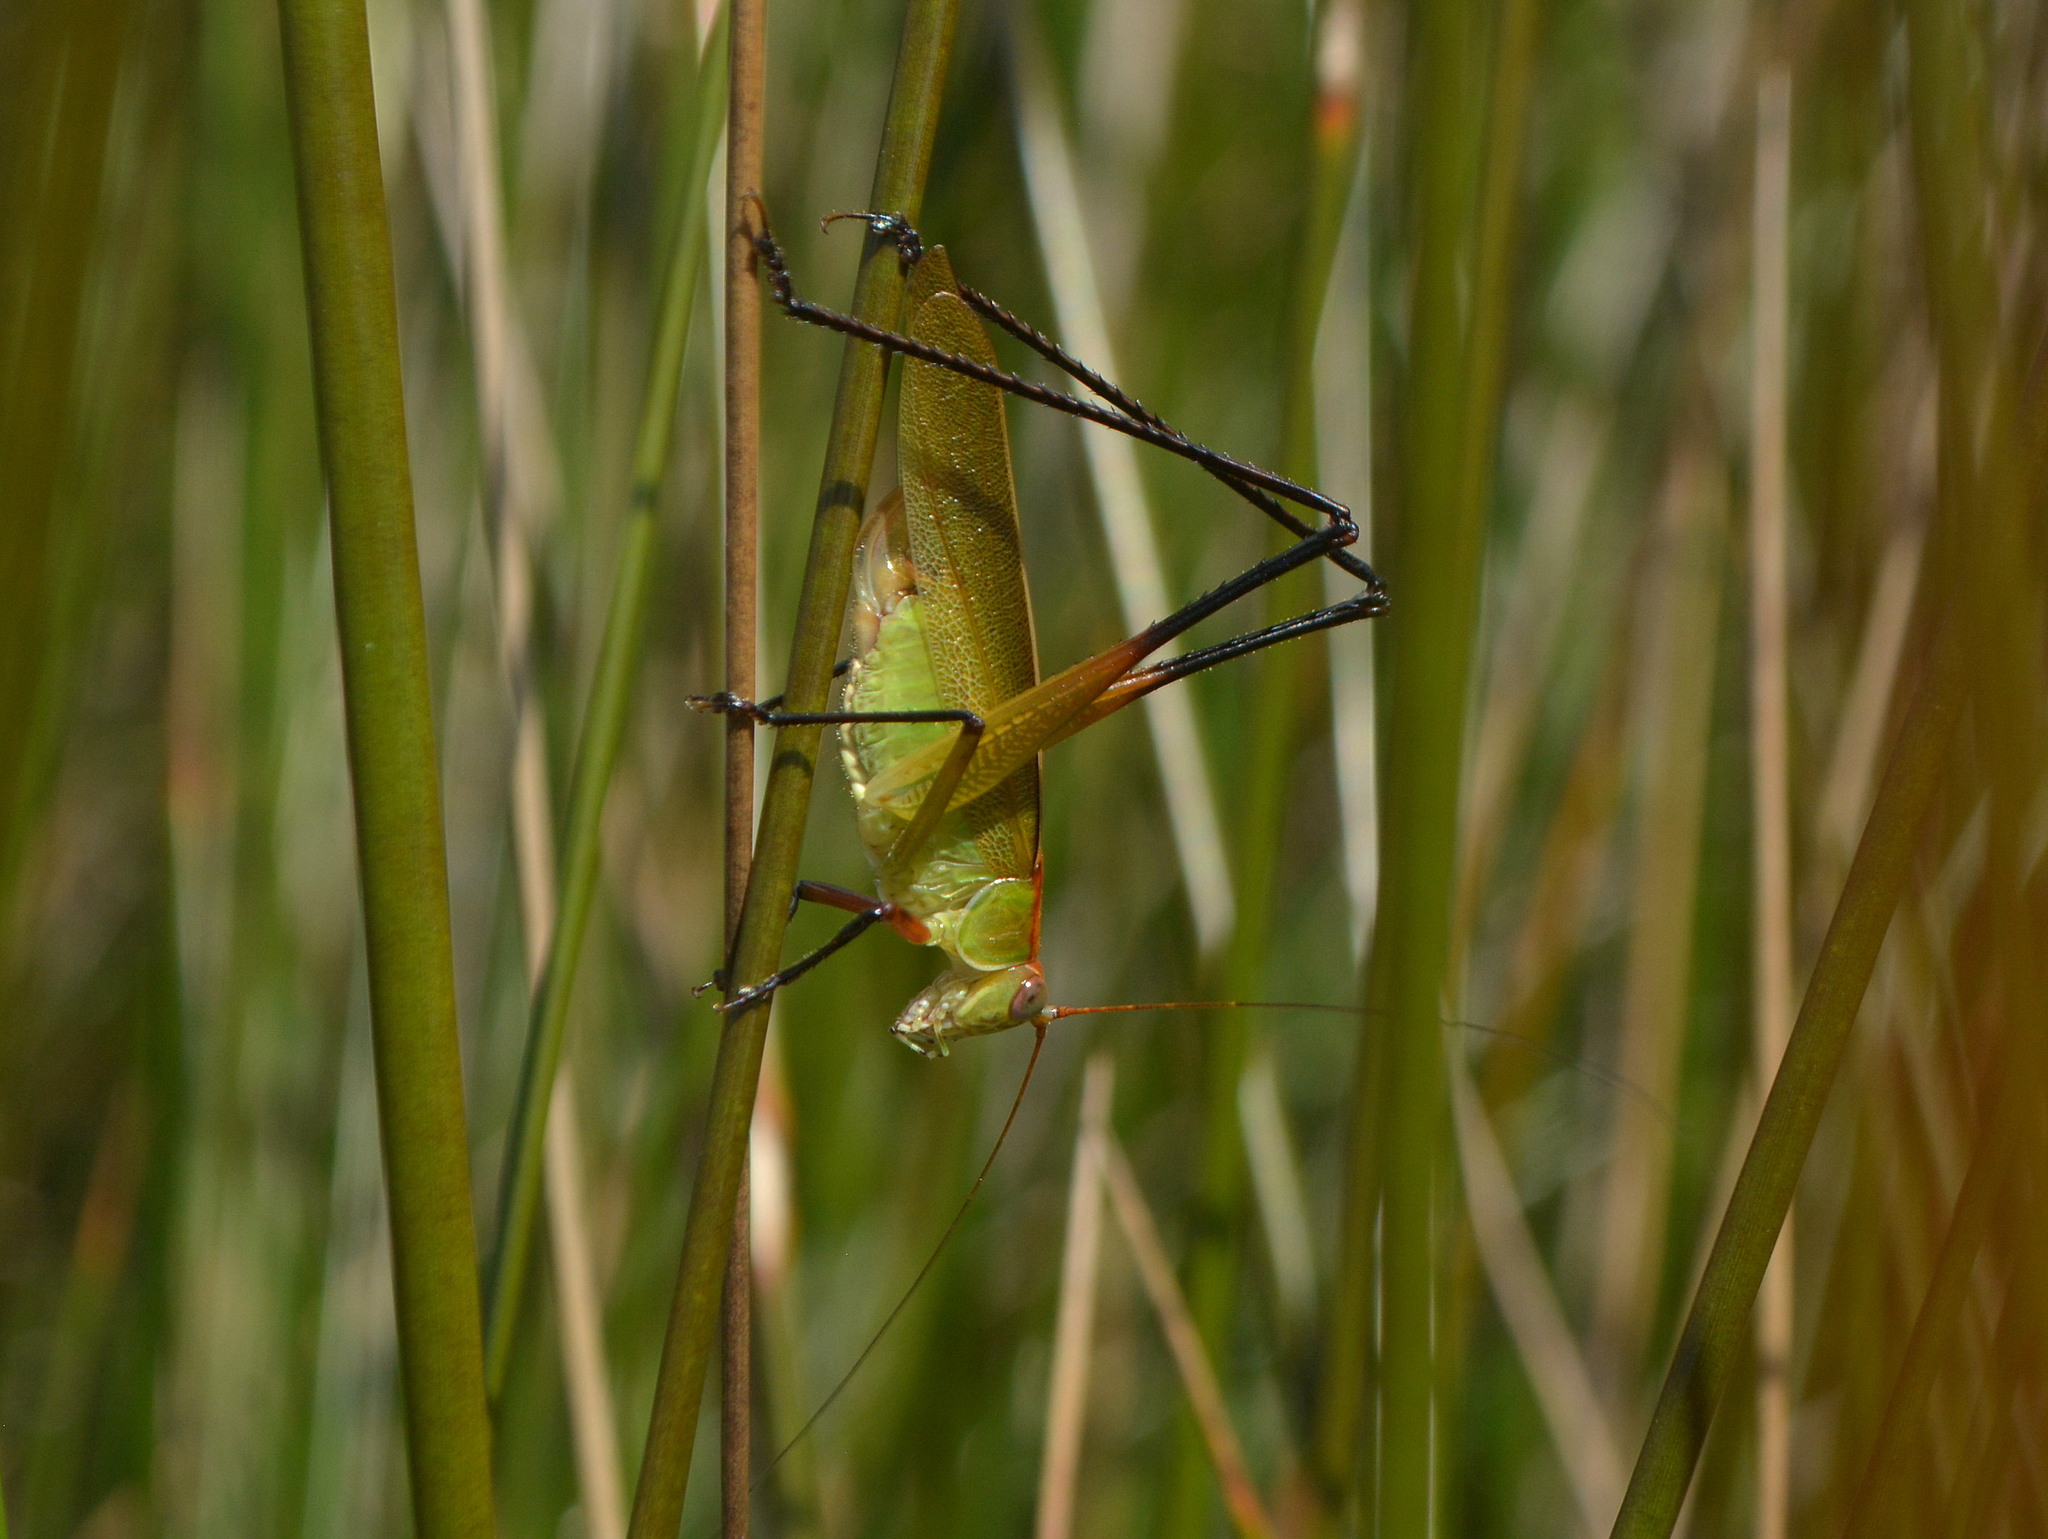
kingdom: Animalia
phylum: Arthropoda
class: Insecta
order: Orthoptera
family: Tettigoniidae
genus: Theudoria
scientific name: Theudoria melanocnemis
